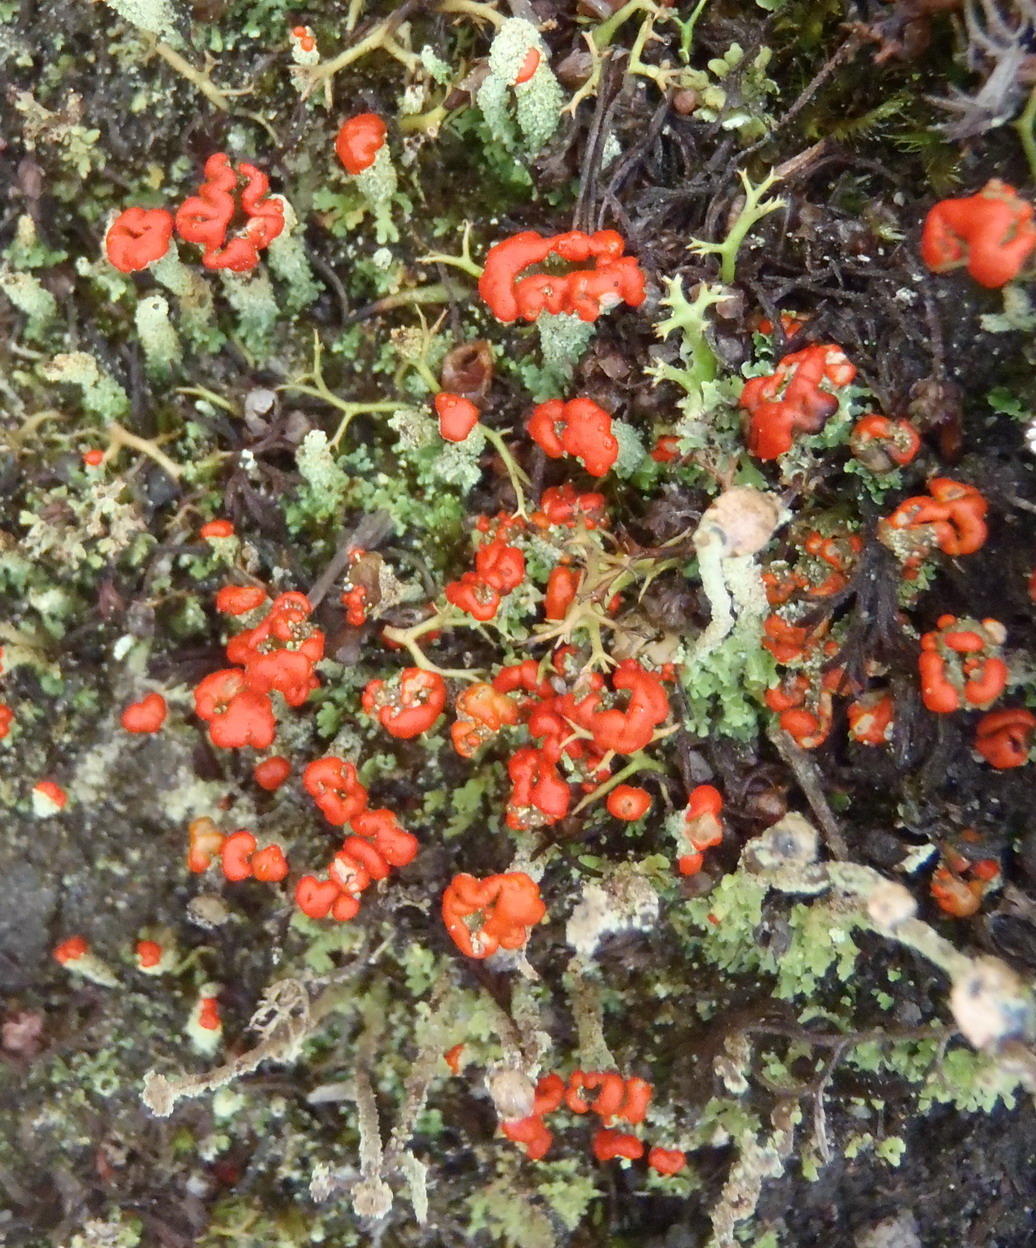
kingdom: Fungi
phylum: Ascomycota
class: Lecanoromycetes
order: Lecanorales
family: Cladoniaceae
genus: Cladonia
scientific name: Cladonia floerkeana
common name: Gritty british soldiers lichen
